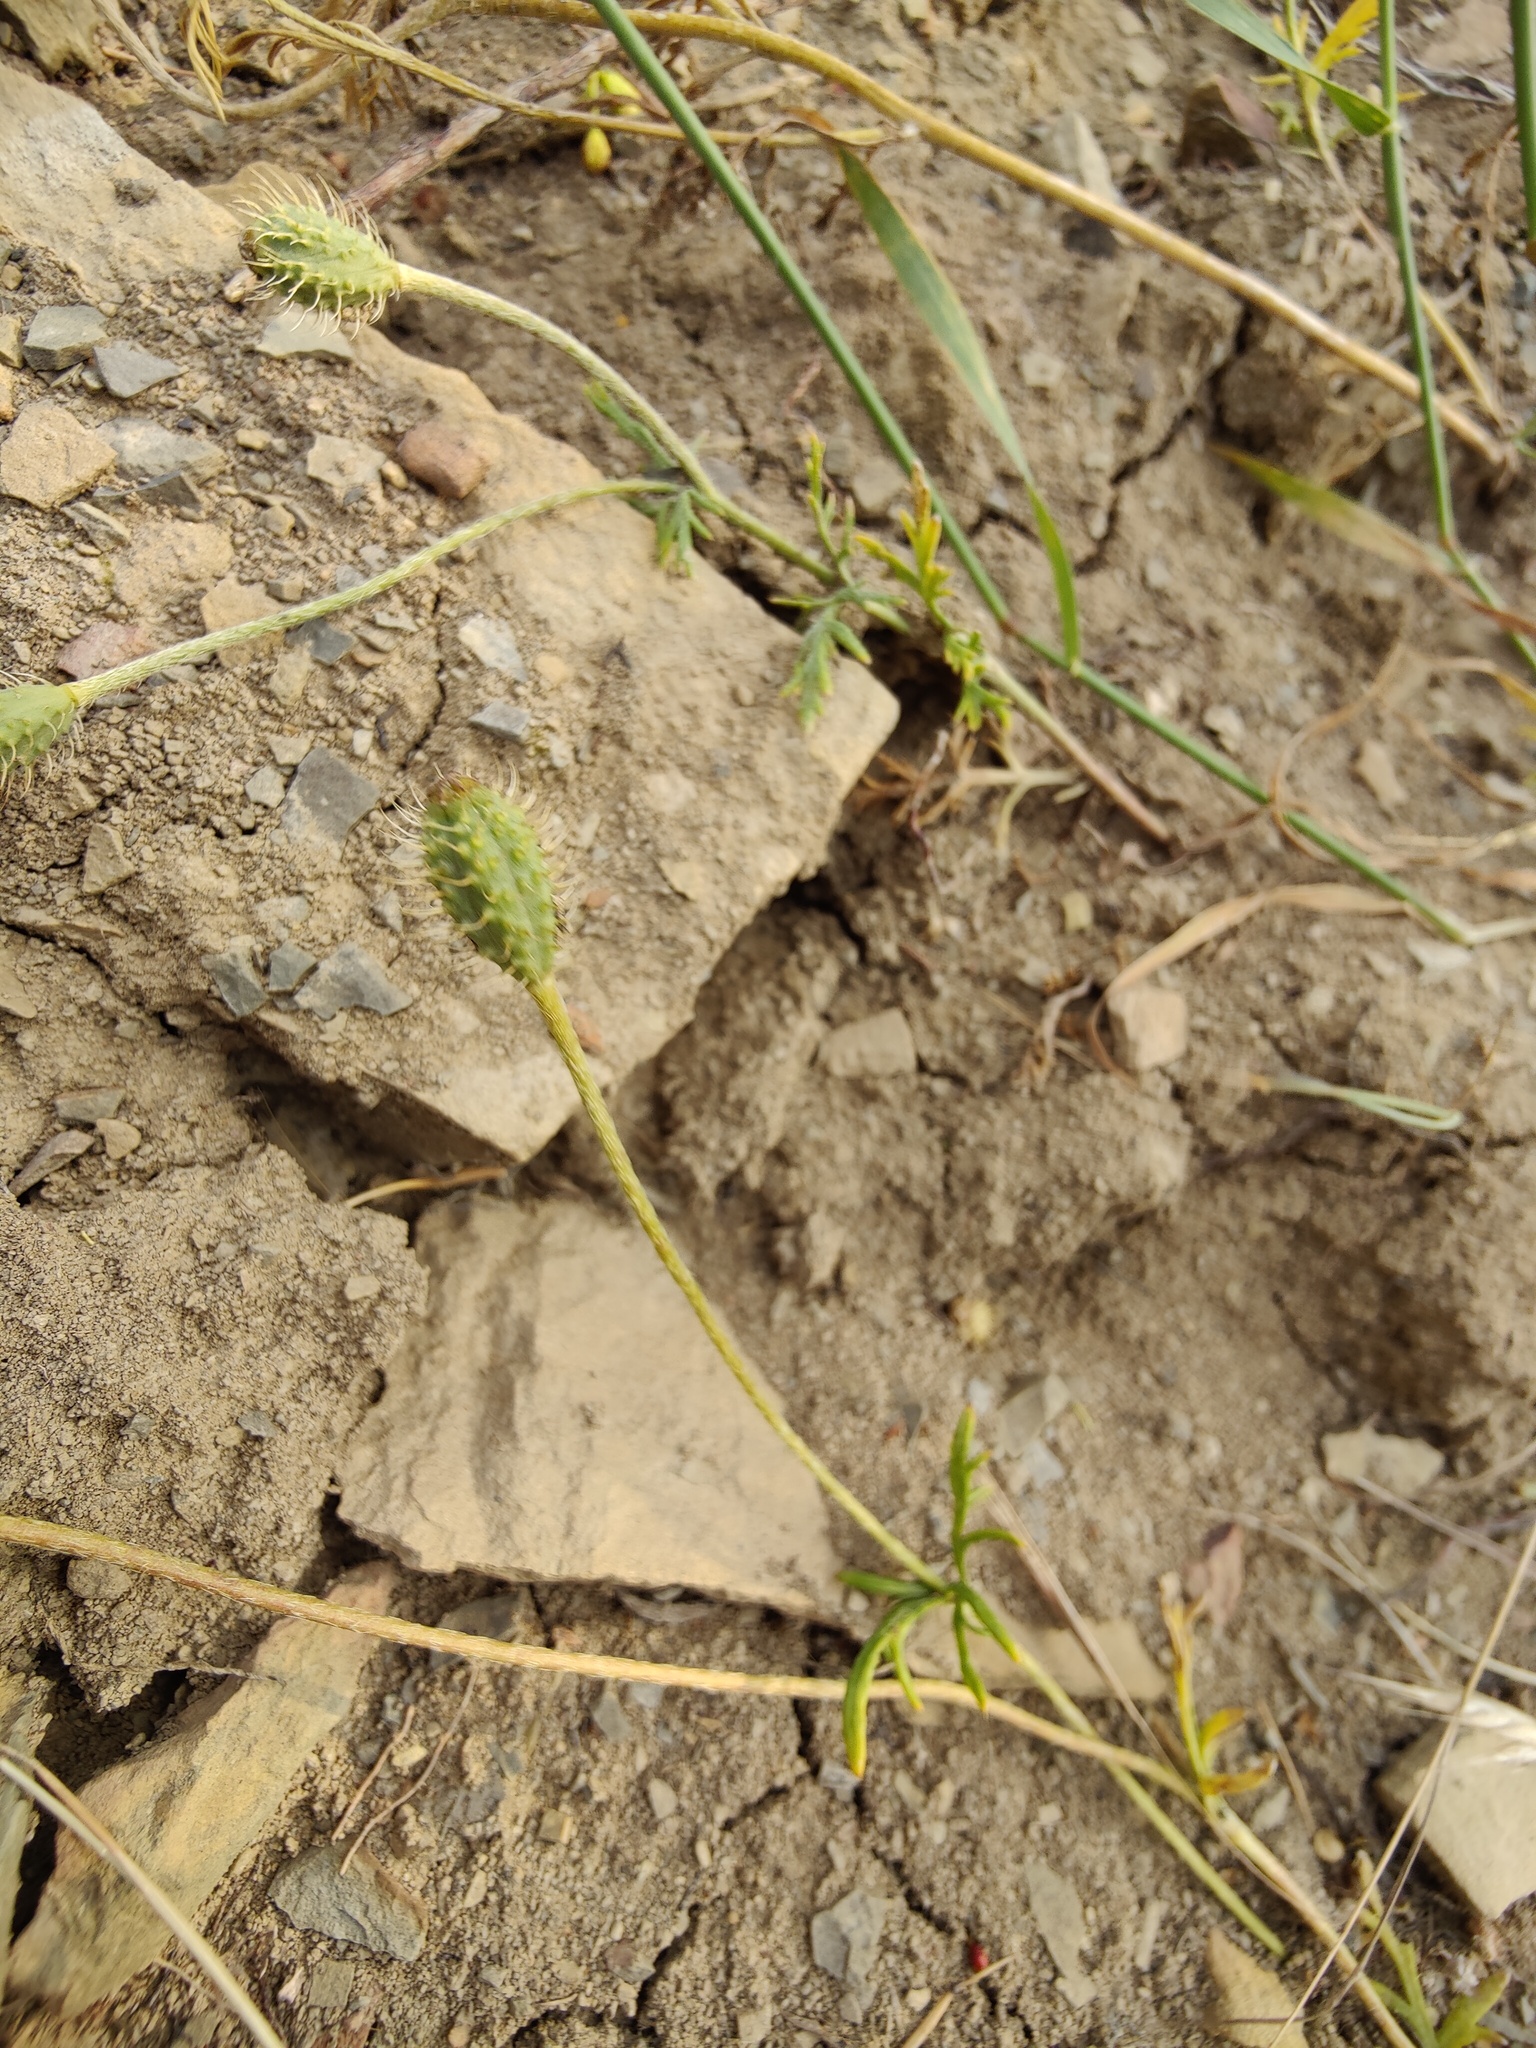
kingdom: Plantae
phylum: Tracheophyta
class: Magnoliopsida
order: Ranunculales
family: Papaveraceae
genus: Roemeria
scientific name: Roemeria hispida
